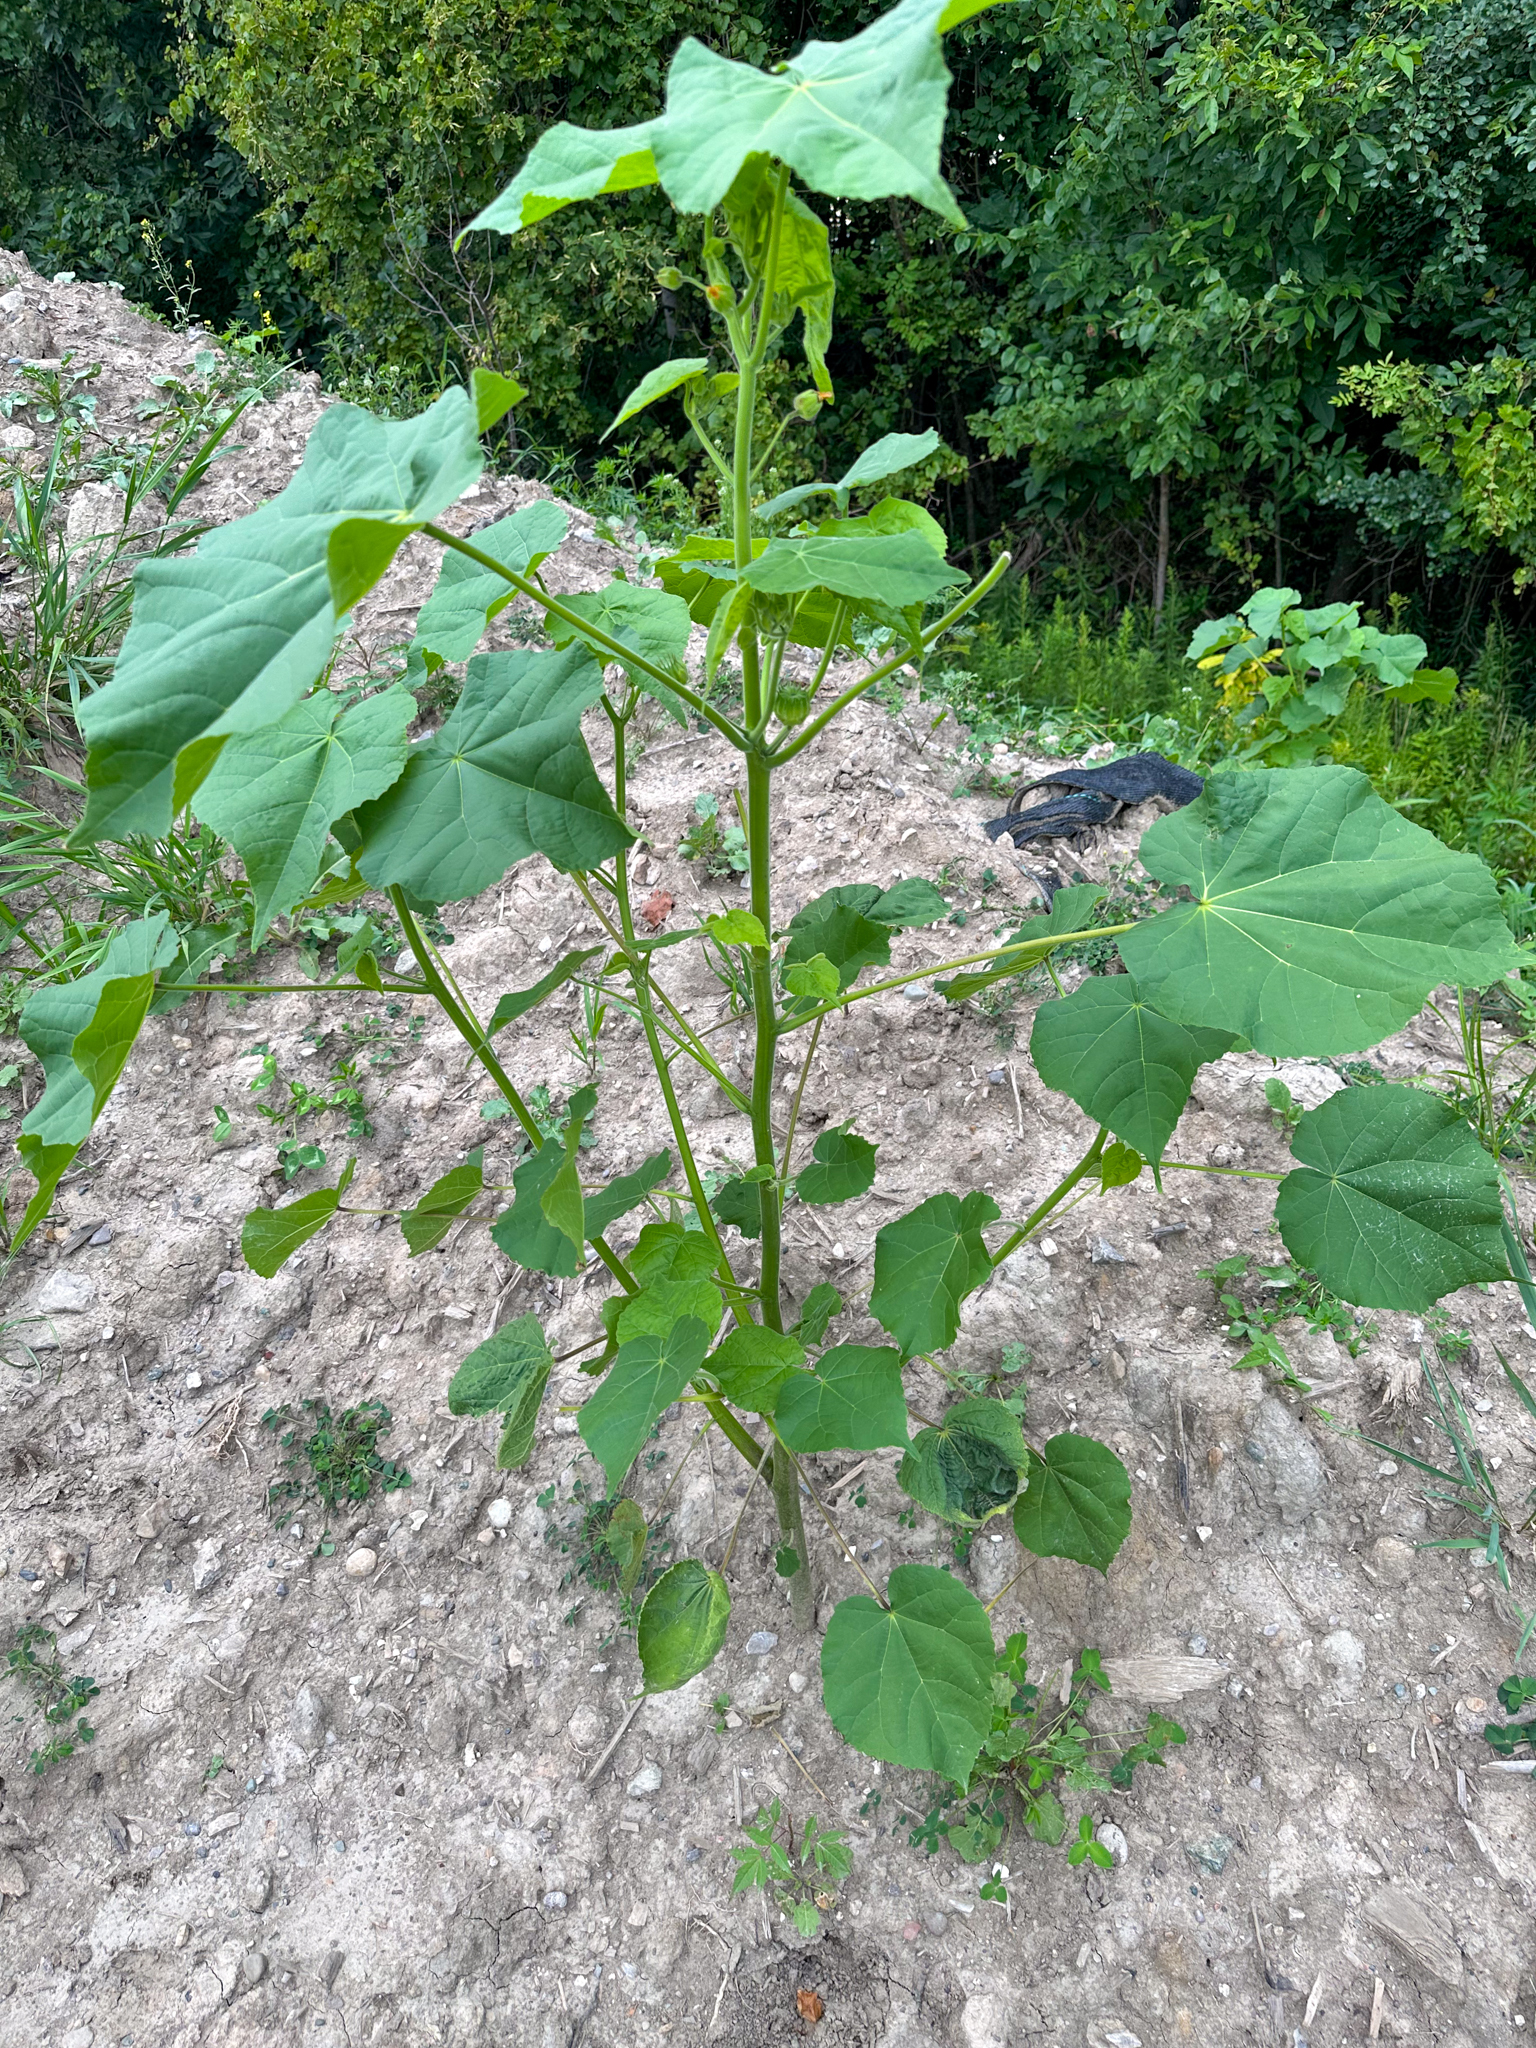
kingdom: Plantae
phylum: Tracheophyta
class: Magnoliopsida
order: Malvales
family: Malvaceae
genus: Abutilon
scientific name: Abutilon theophrasti
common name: Velvetleaf
